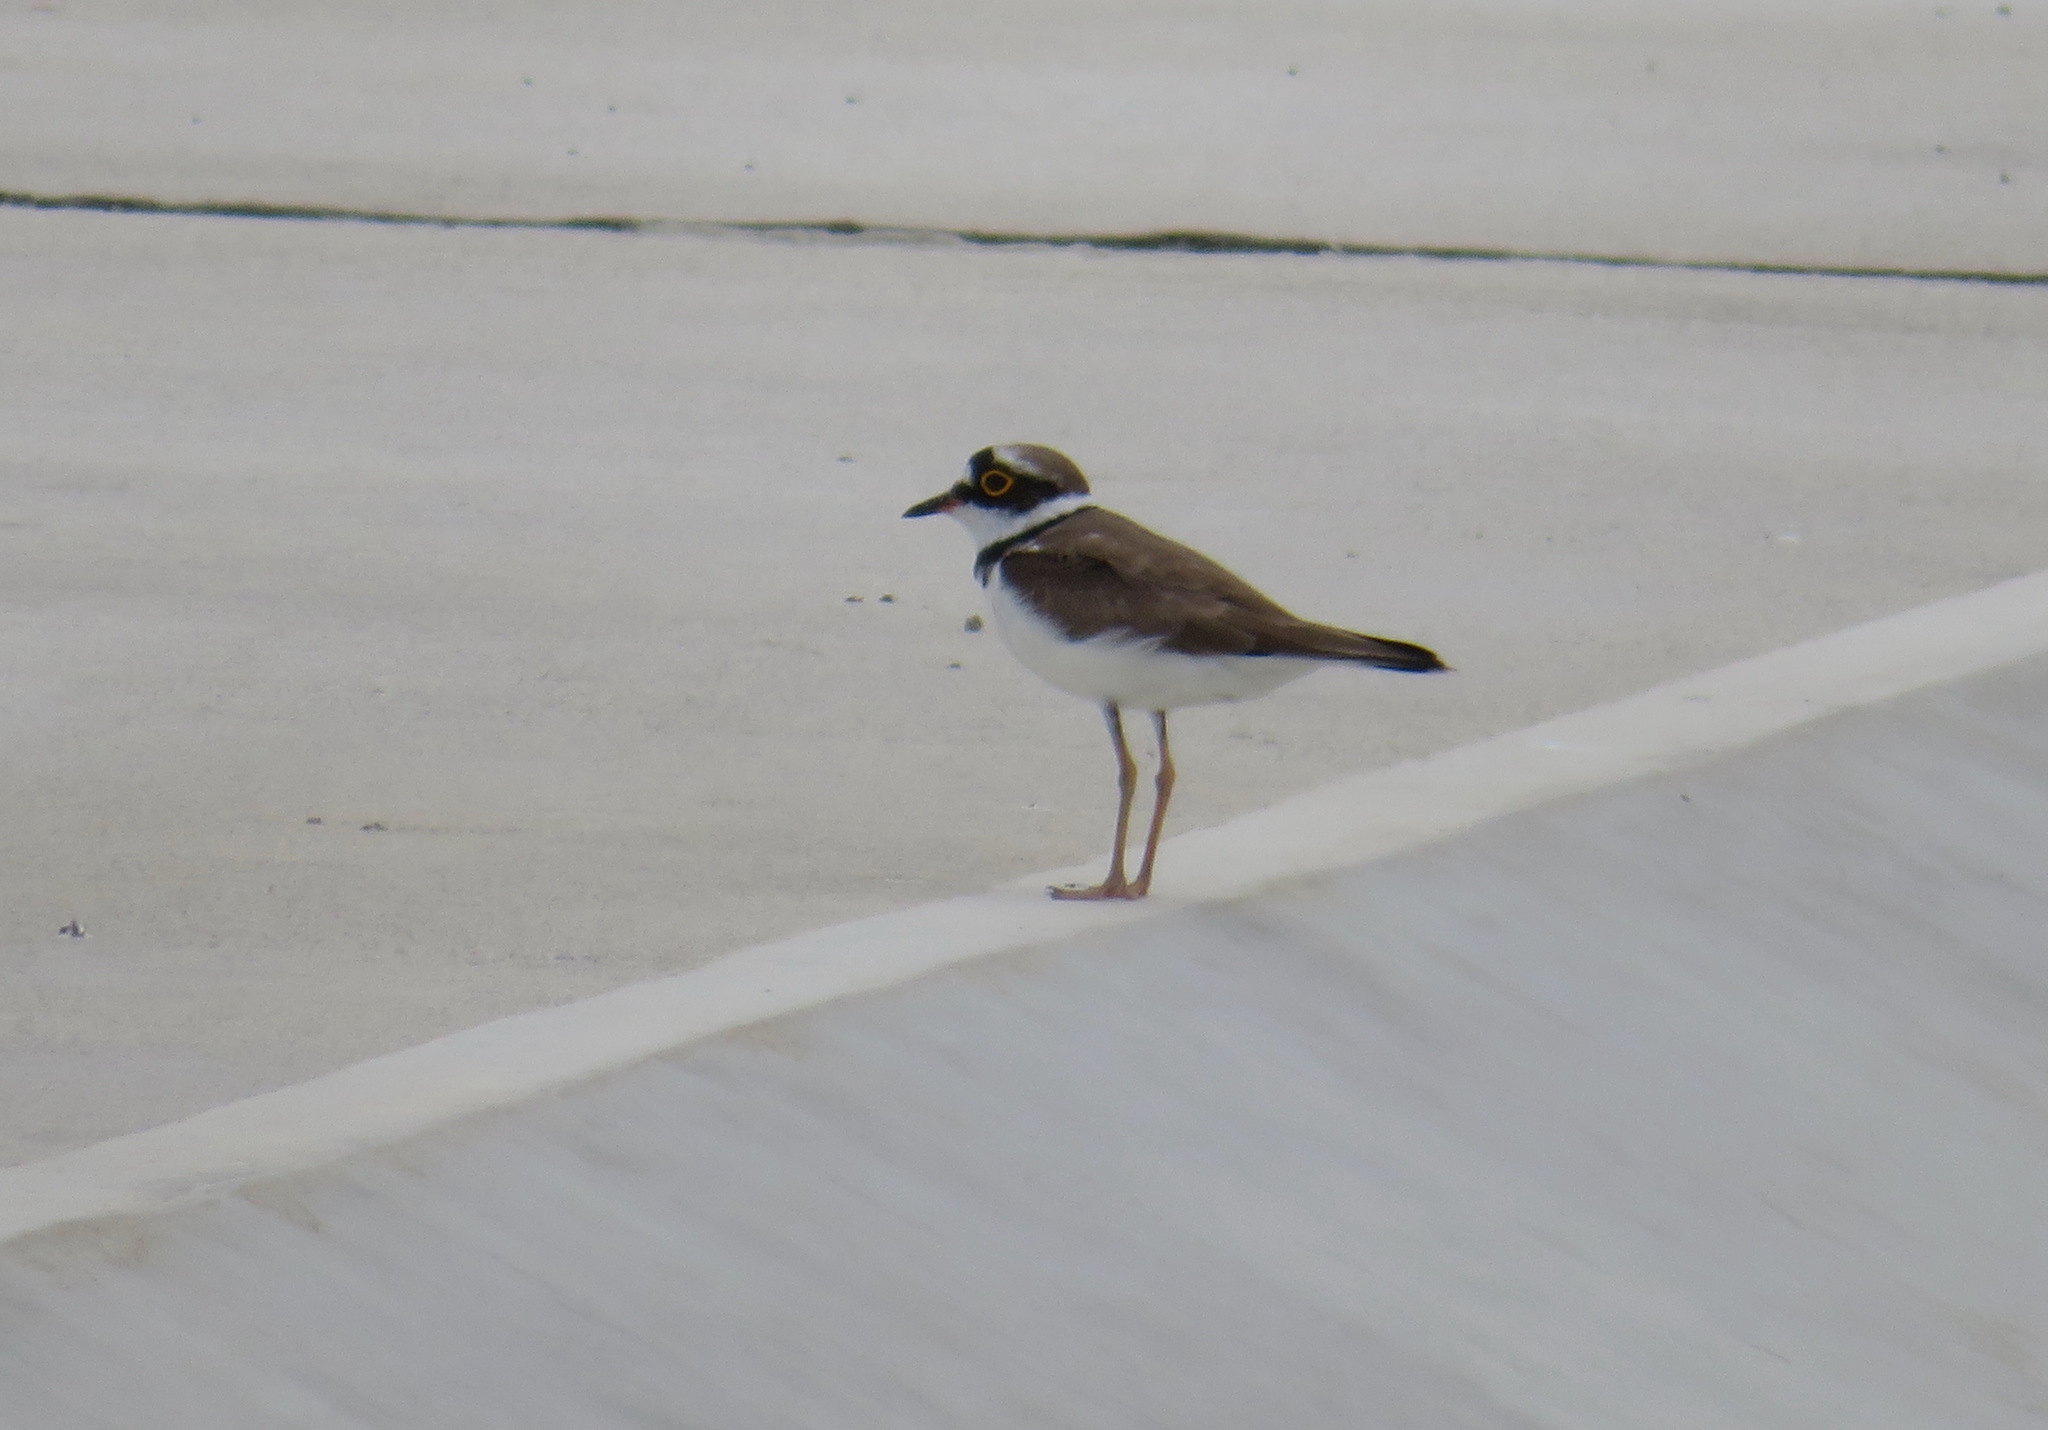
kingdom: Animalia
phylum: Chordata
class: Aves
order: Charadriiformes
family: Charadriidae
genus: Charadrius
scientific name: Charadrius dubius
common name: Little ringed plover
